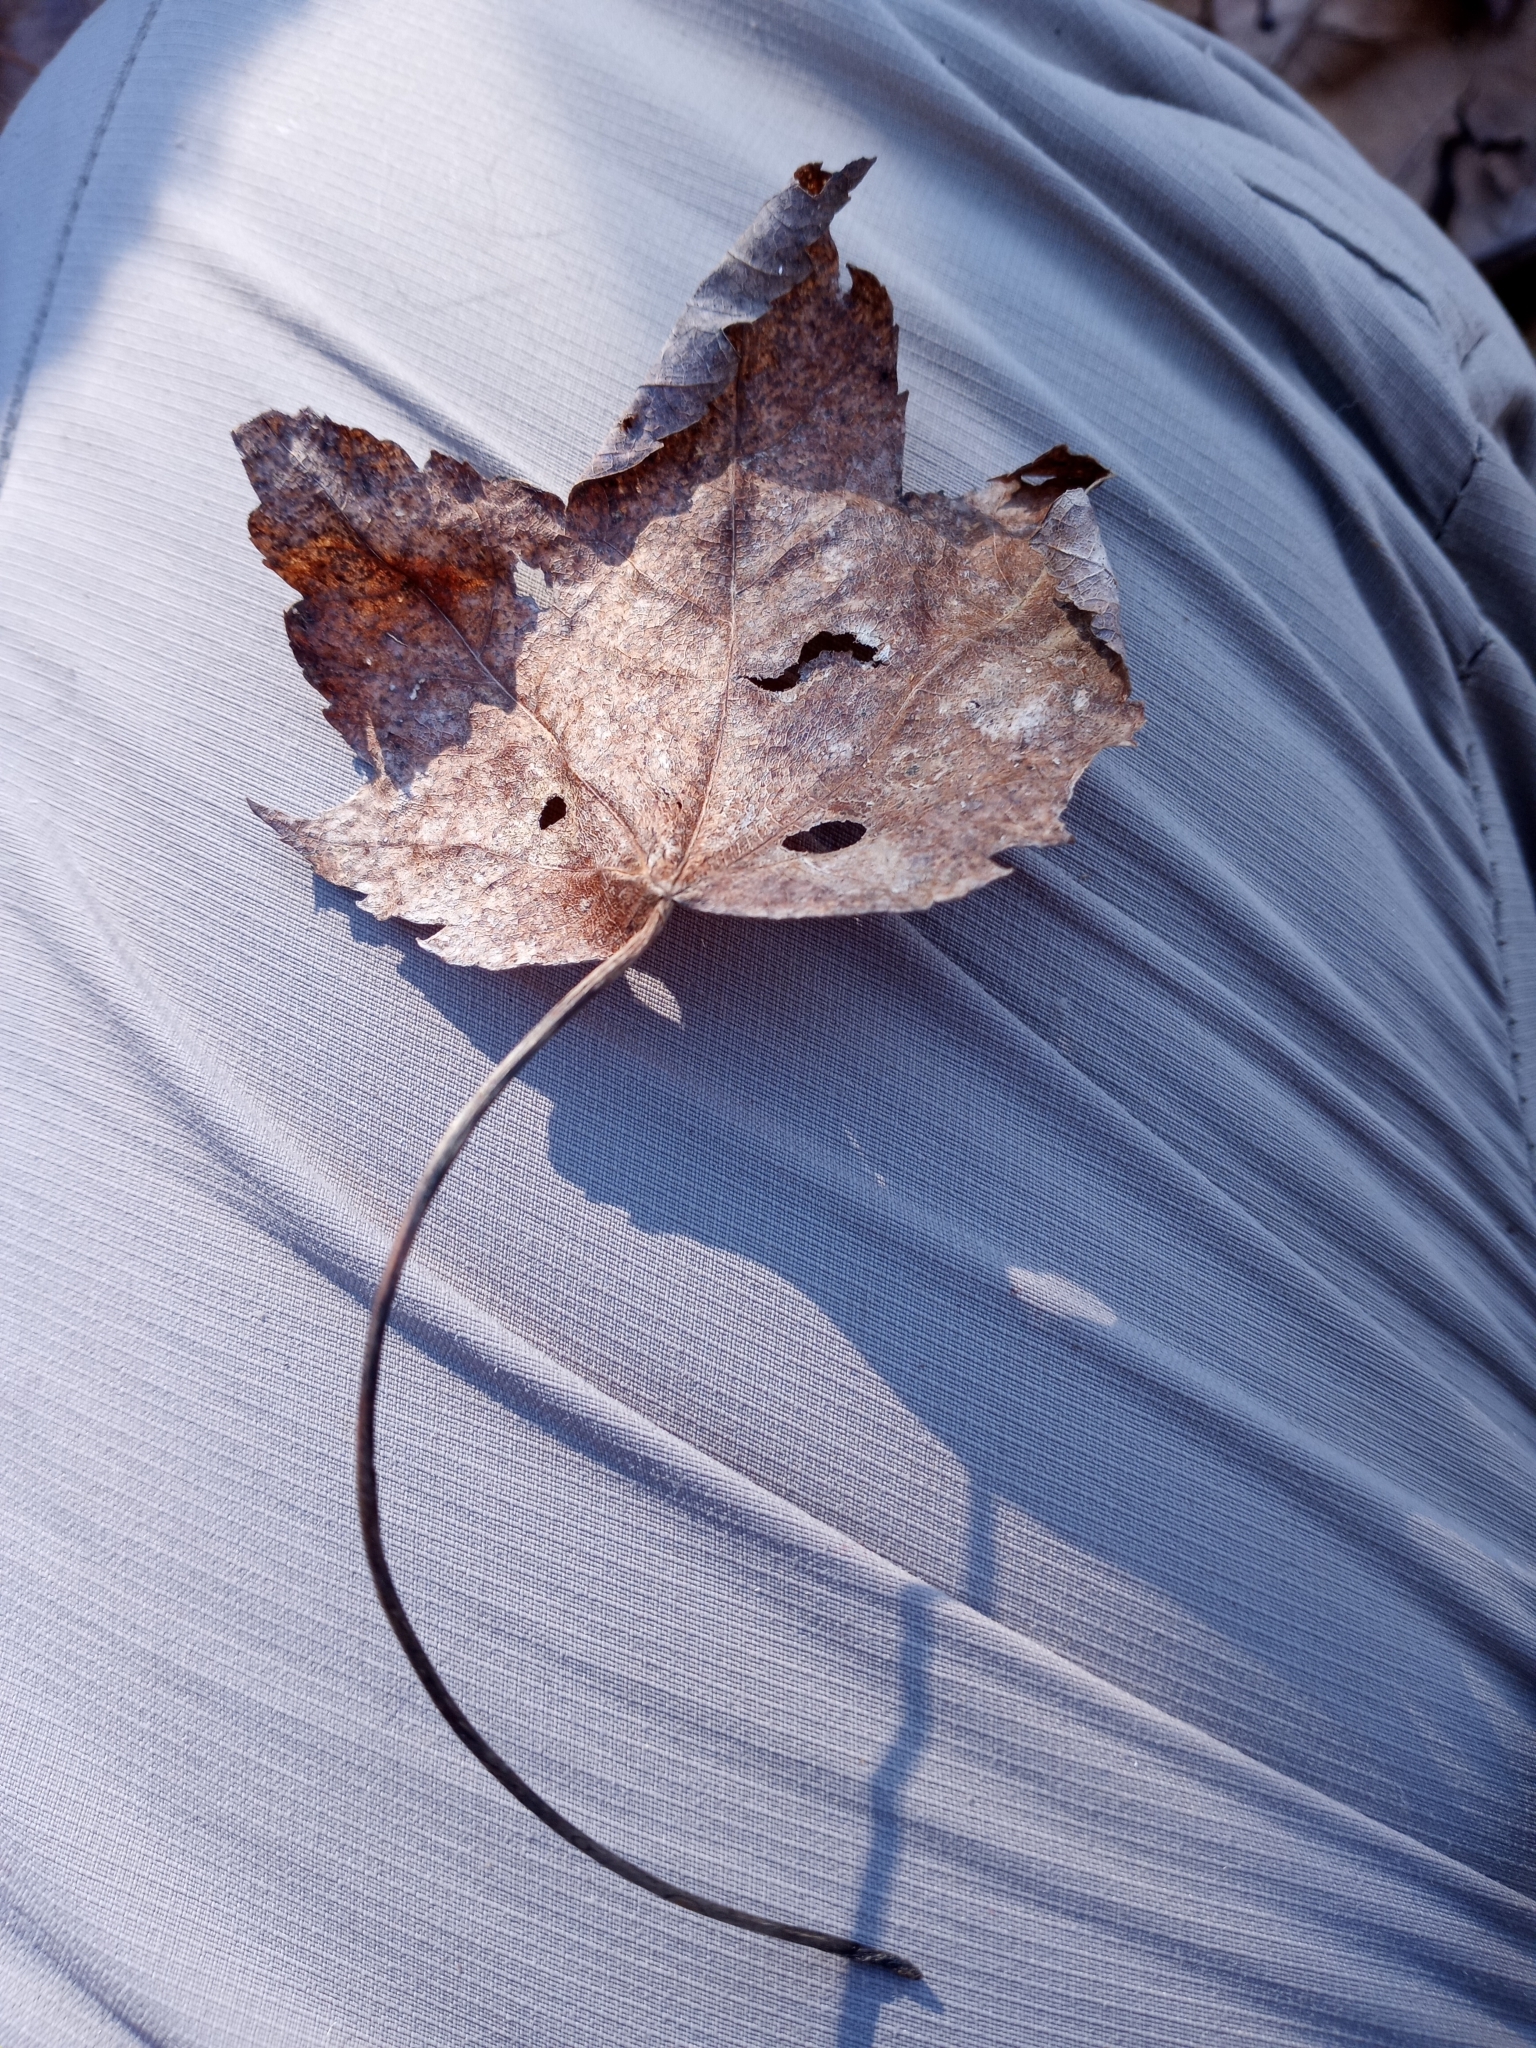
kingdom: Plantae
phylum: Tracheophyta
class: Magnoliopsida
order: Sapindales
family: Sapindaceae
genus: Acer
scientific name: Acer rubrum
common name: Red maple
